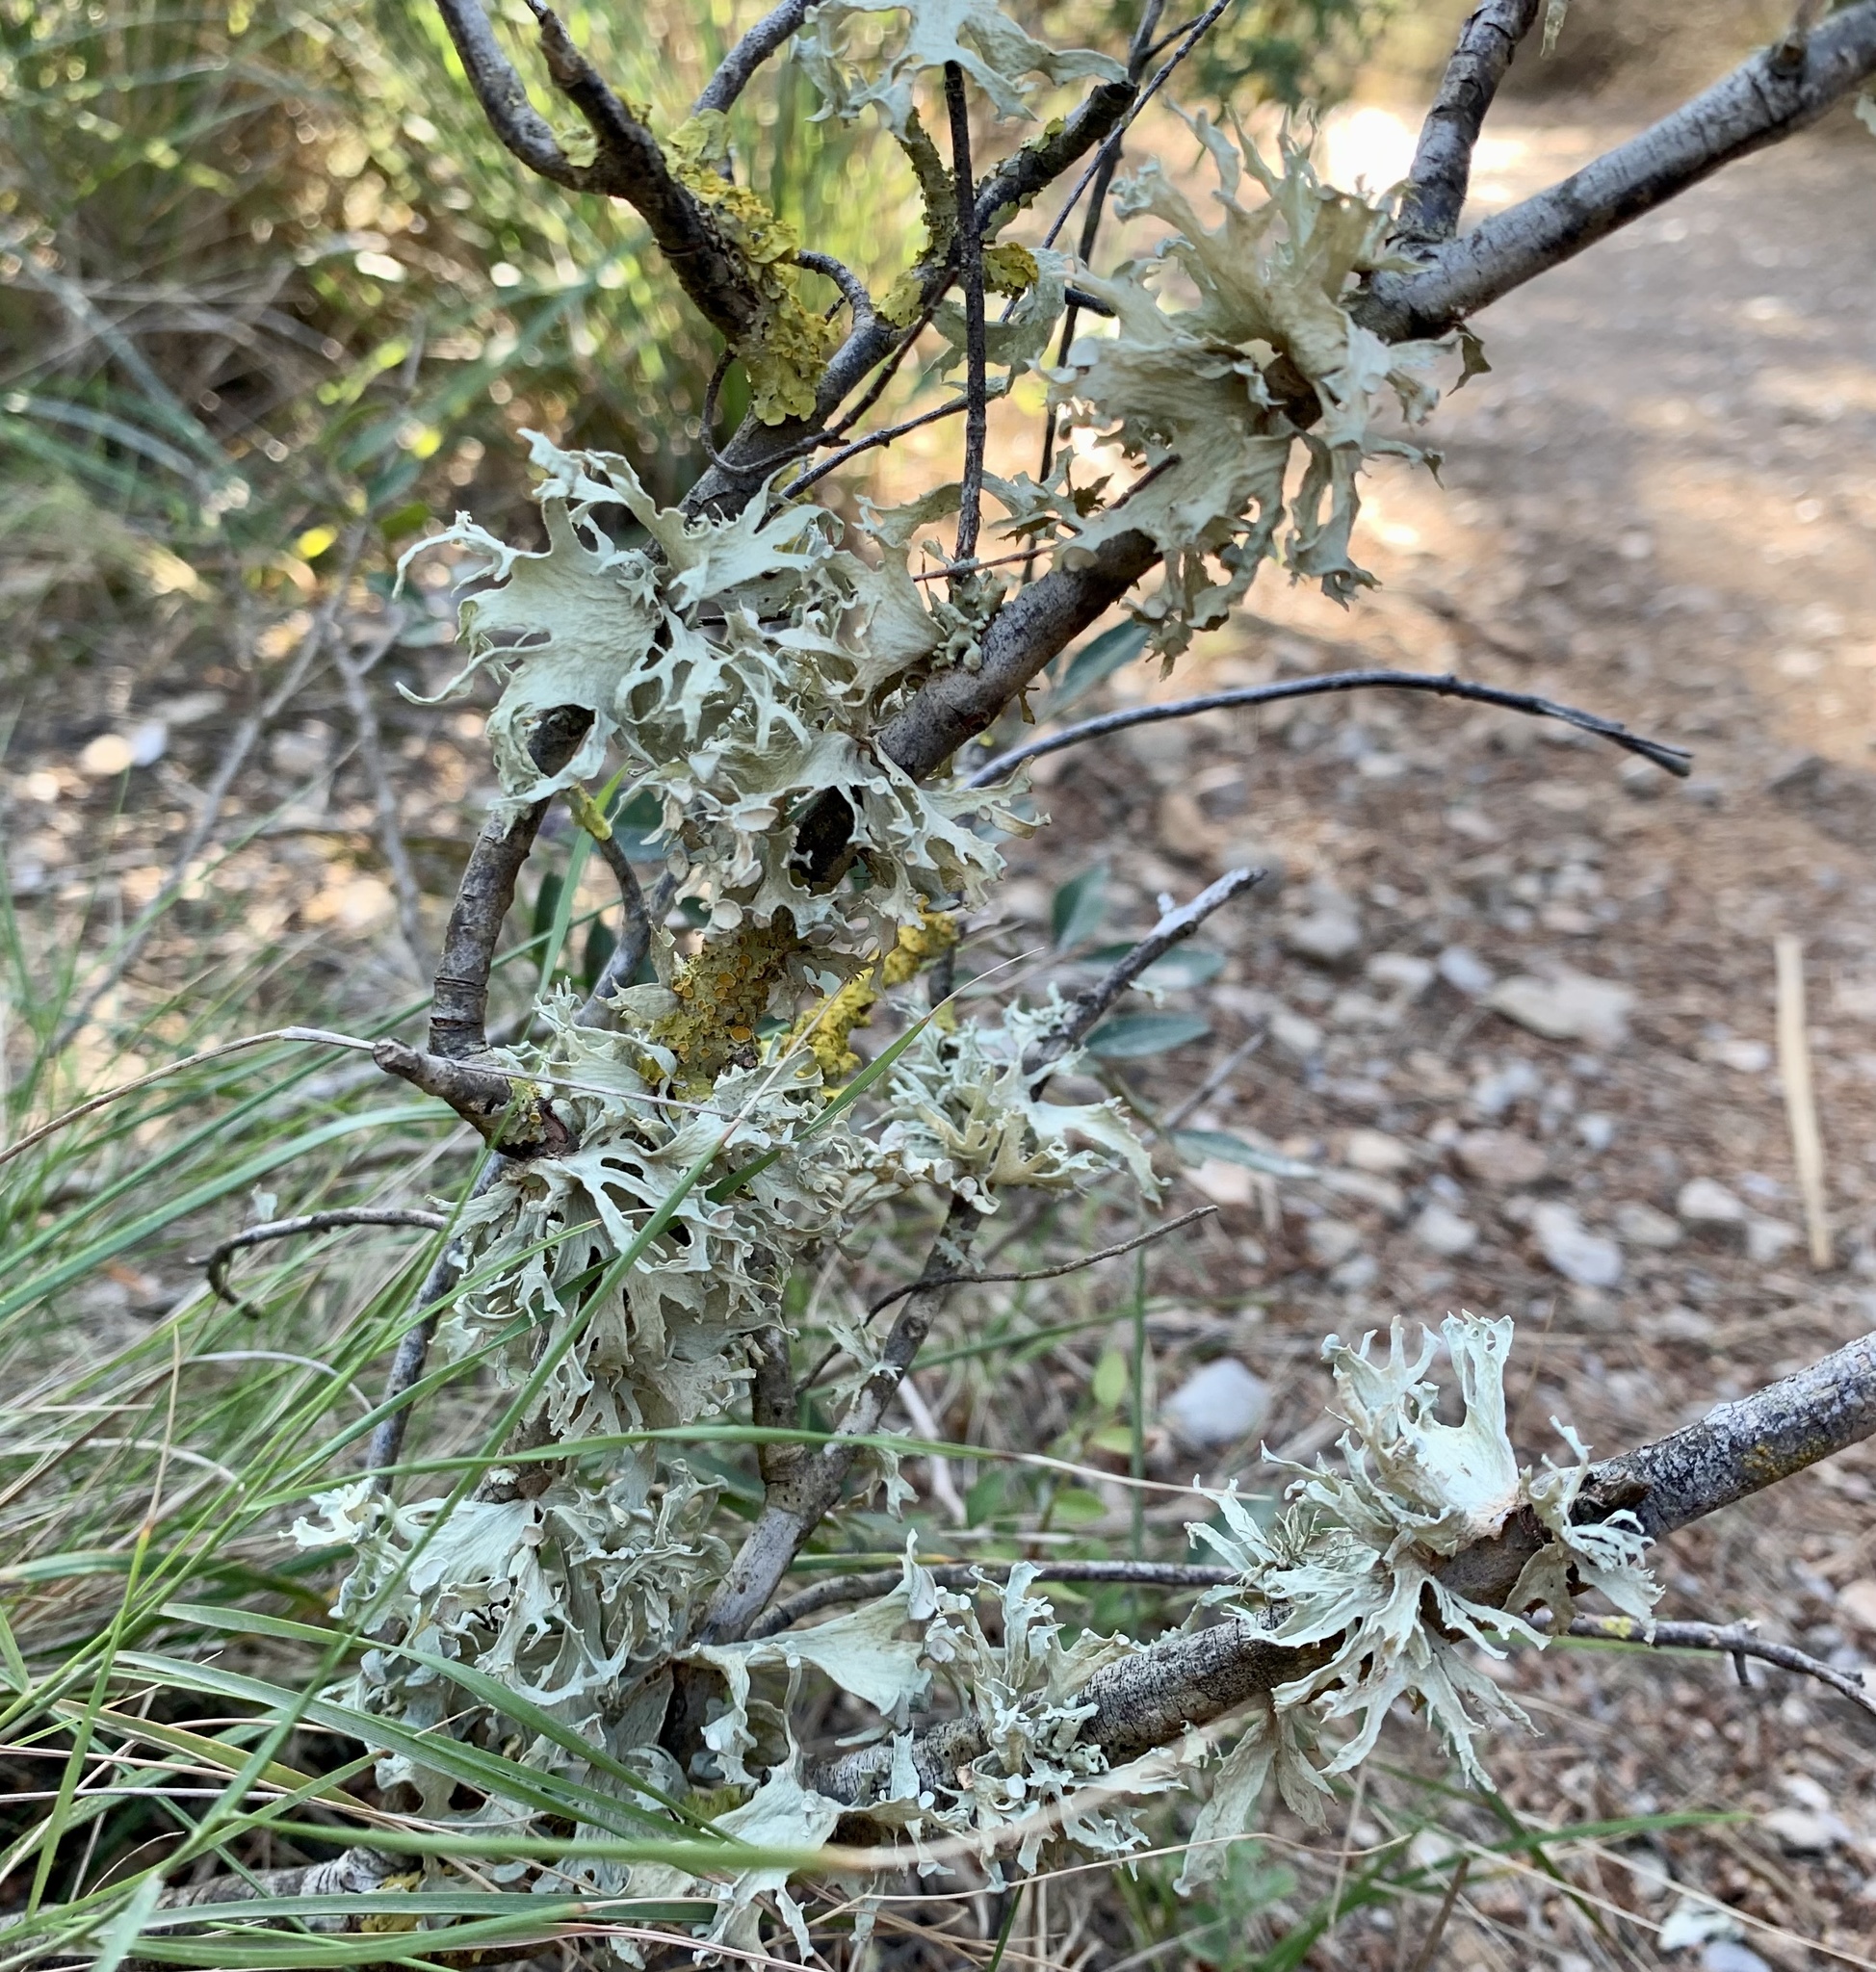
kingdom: Fungi
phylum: Ascomycota
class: Lecanoromycetes
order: Lecanorales
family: Ramalinaceae
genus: Ramalina
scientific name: Ramalina fraxinea
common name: Cartilage lichen
